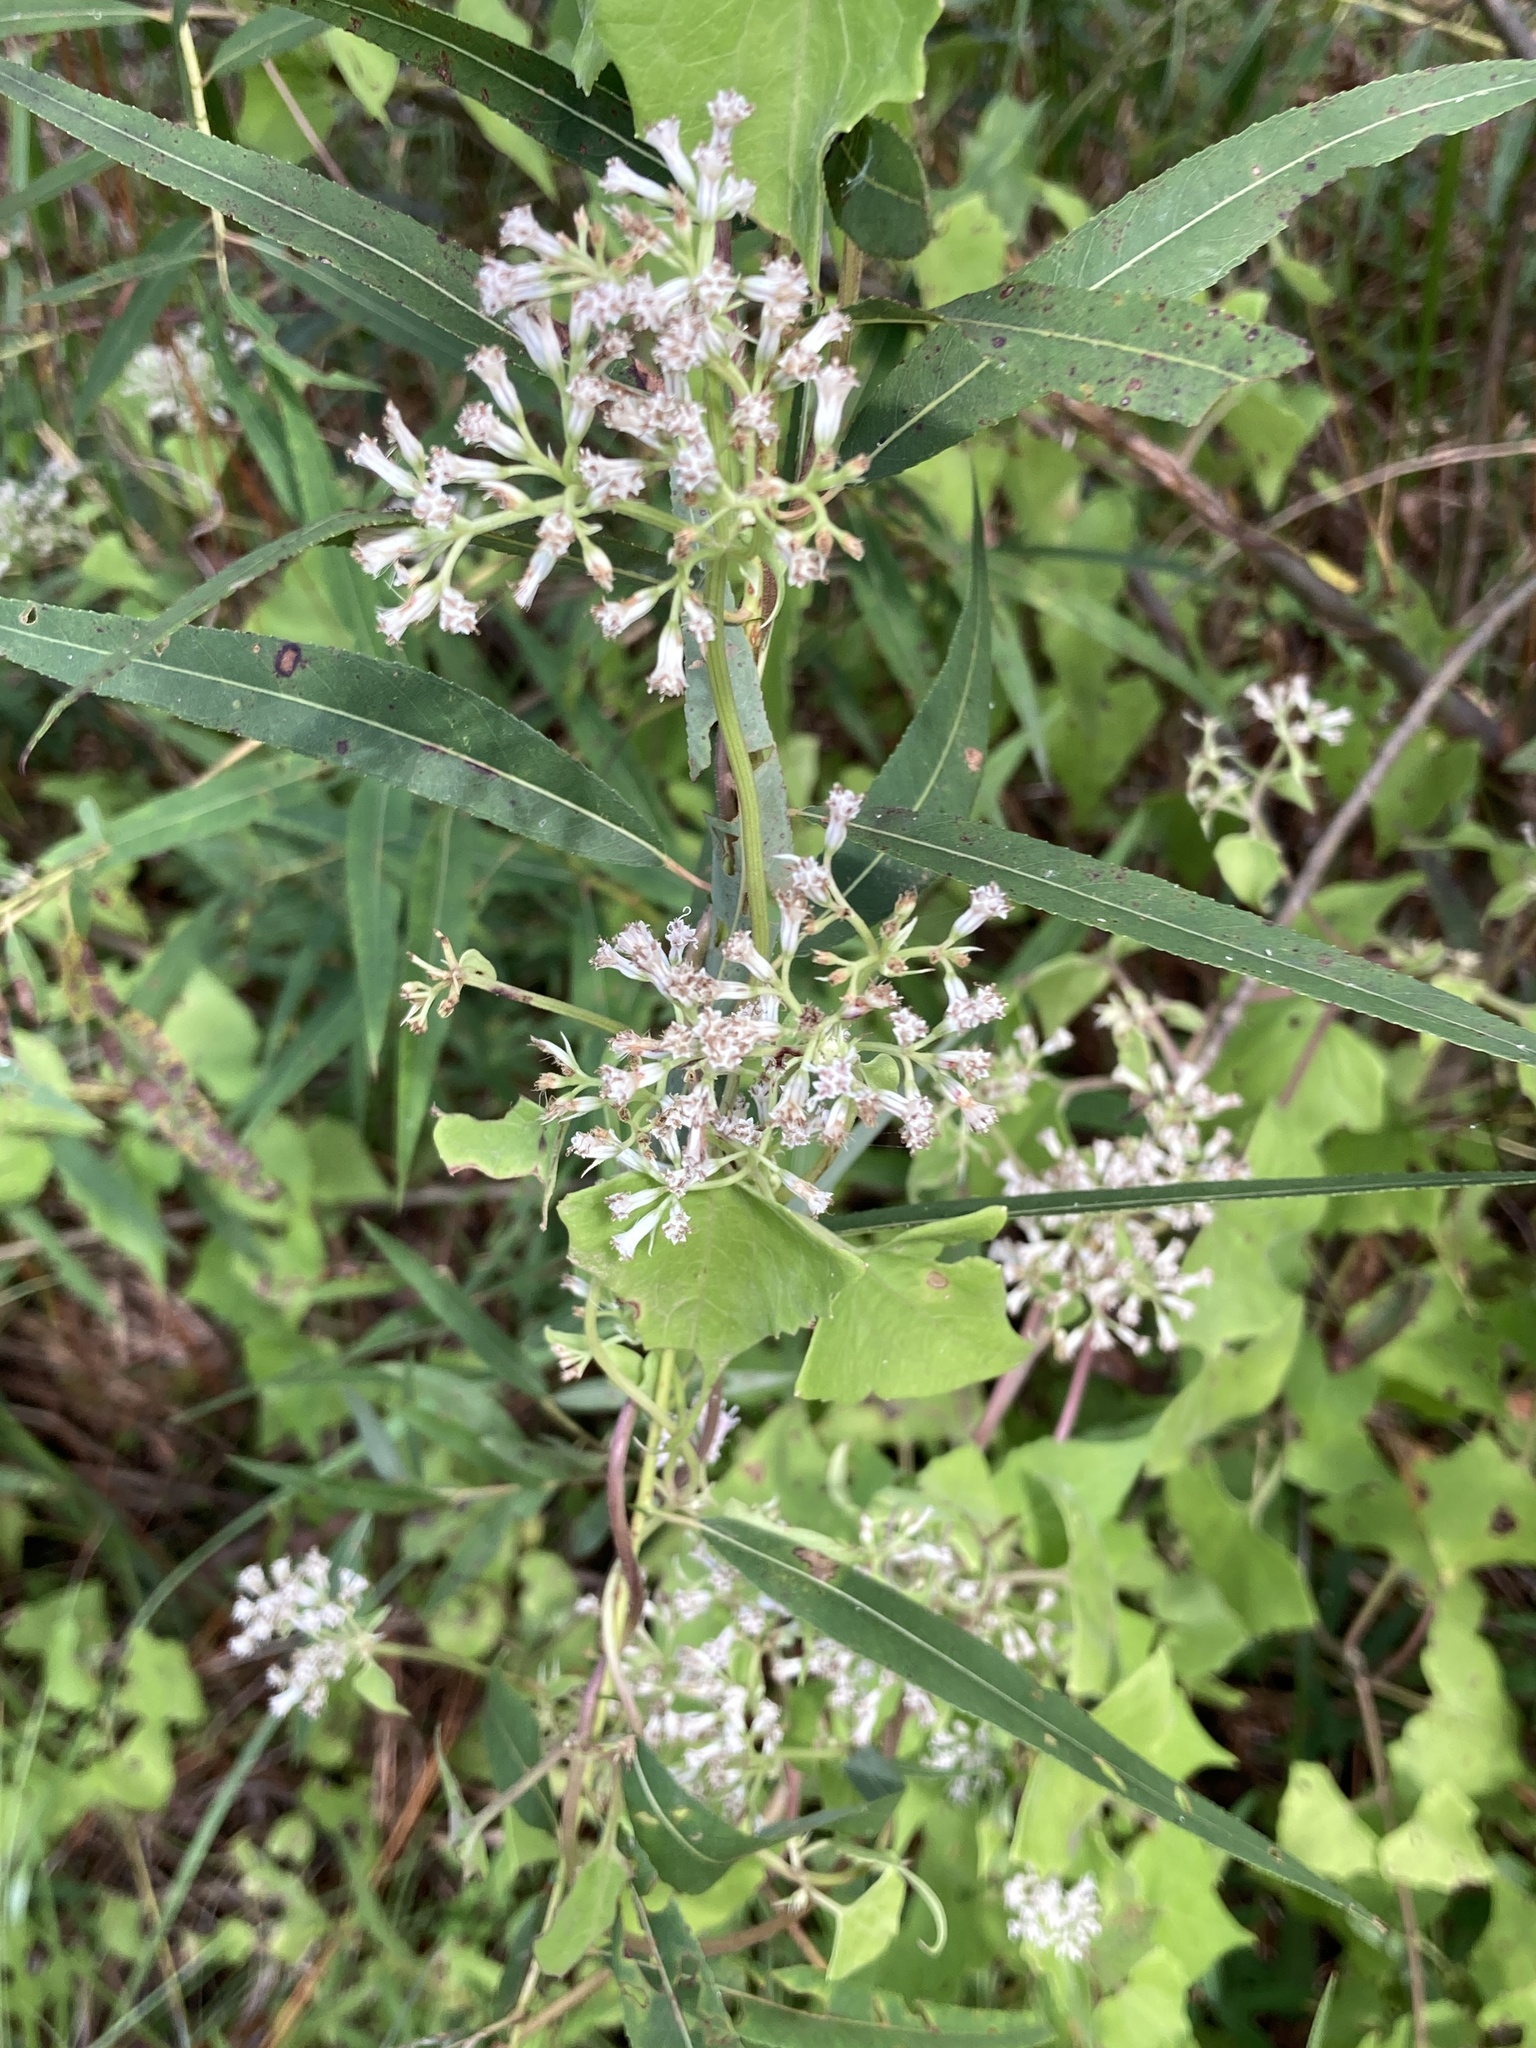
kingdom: Plantae
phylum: Tracheophyta
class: Magnoliopsida
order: Asterales
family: Asteraceae
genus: Mikania
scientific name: Mikania scandens
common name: Climbing hempvine
